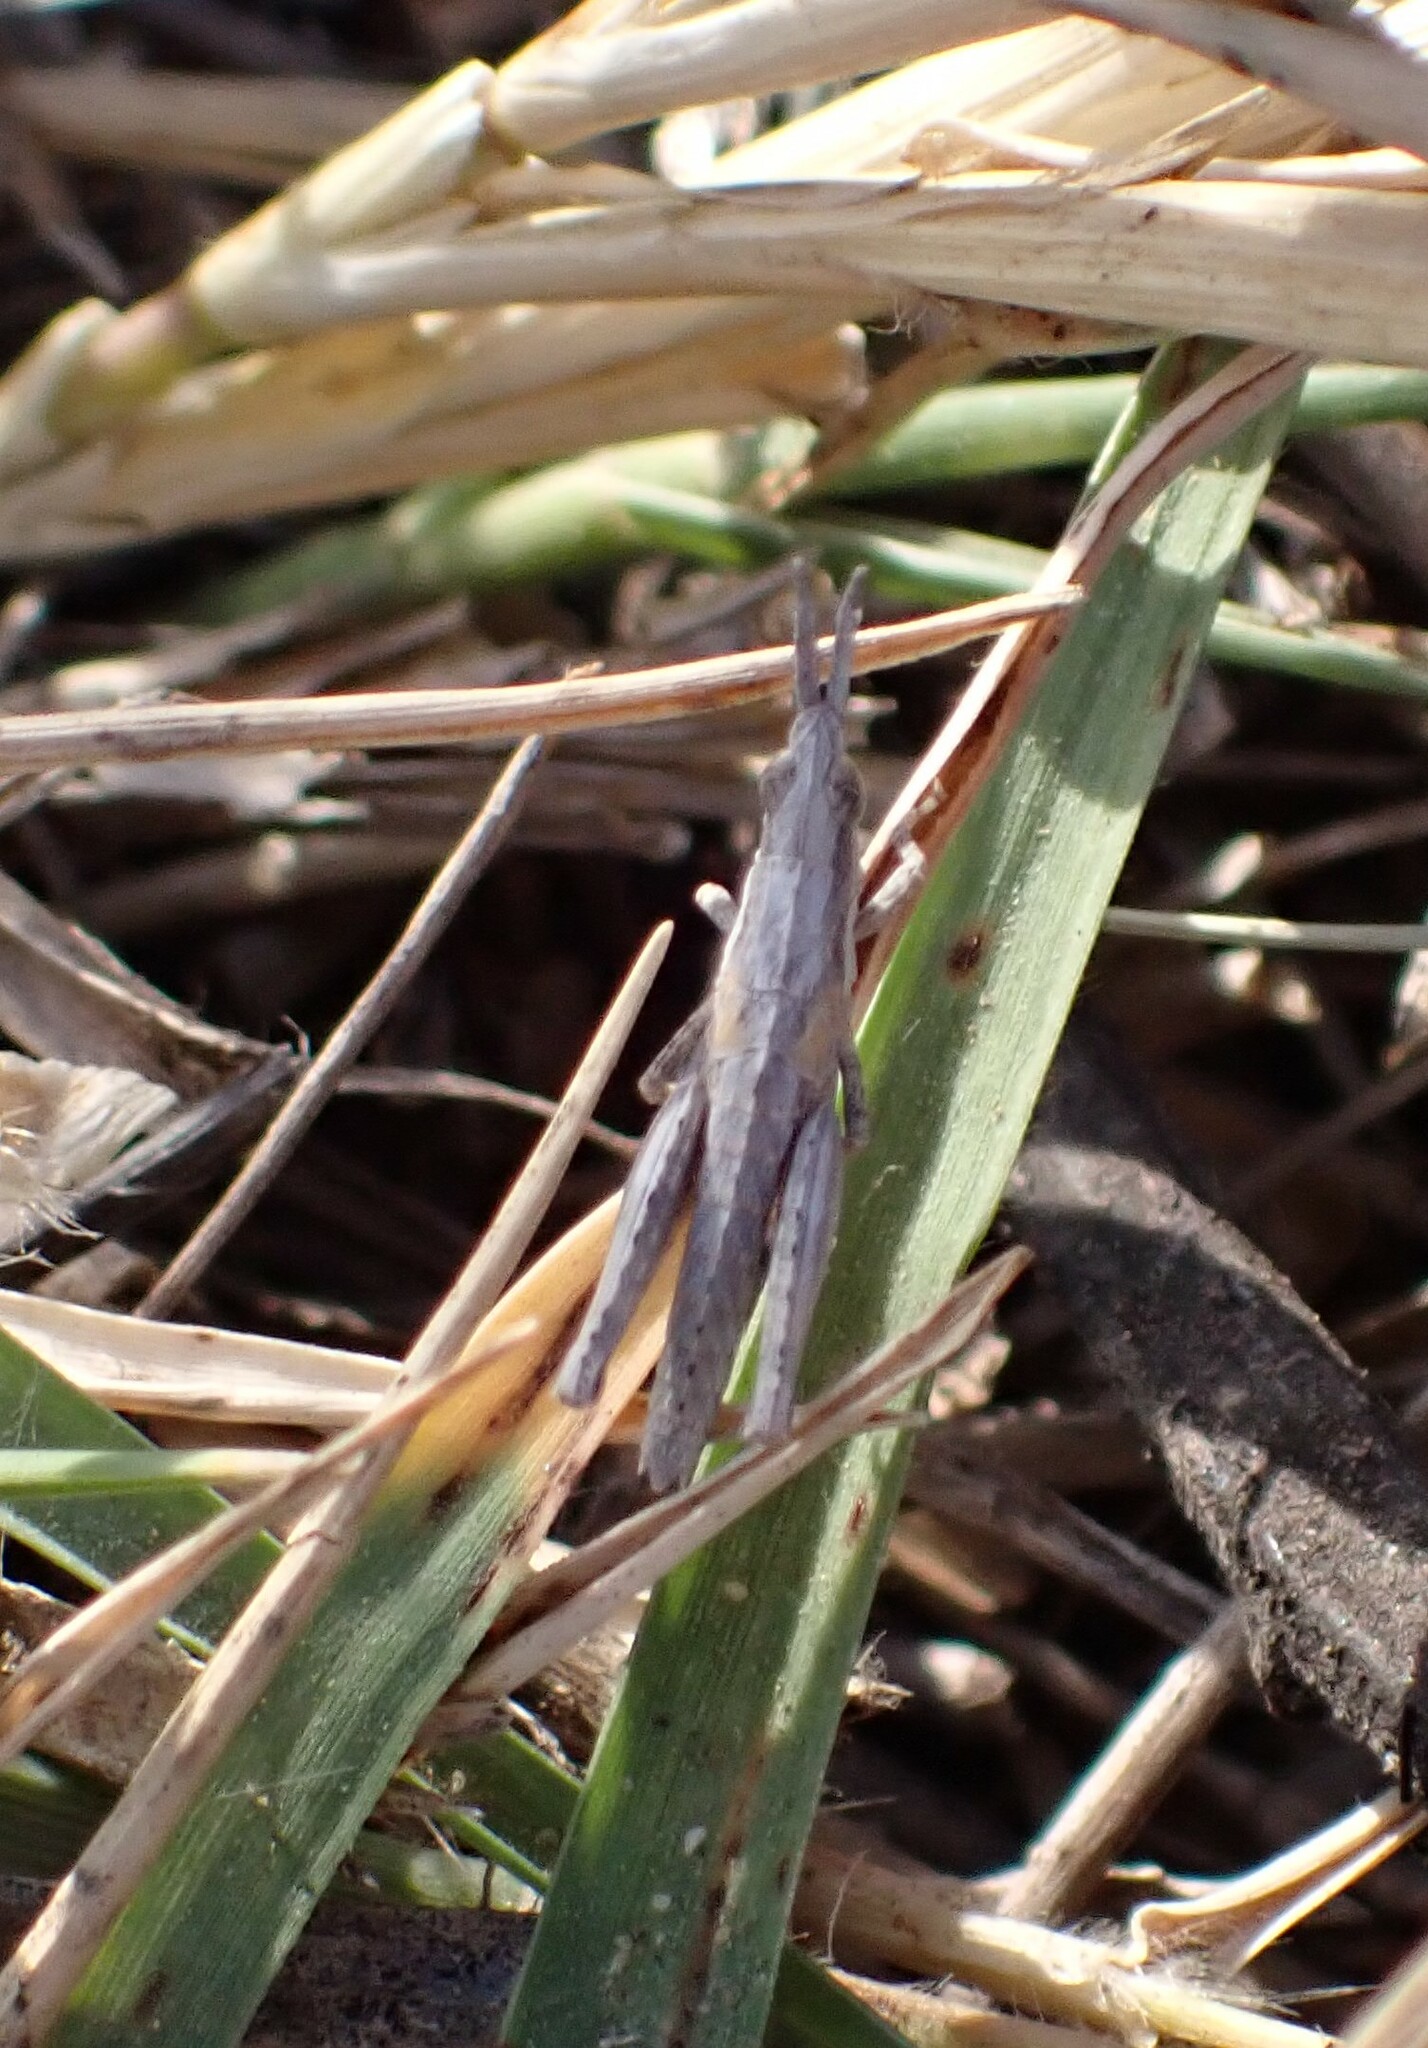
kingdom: Animalia
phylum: Arthropoda
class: Insecta
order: Orthoptera
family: Pyrgomorphidae
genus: Pyrgomorpha
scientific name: Pyrgomorpha conica
